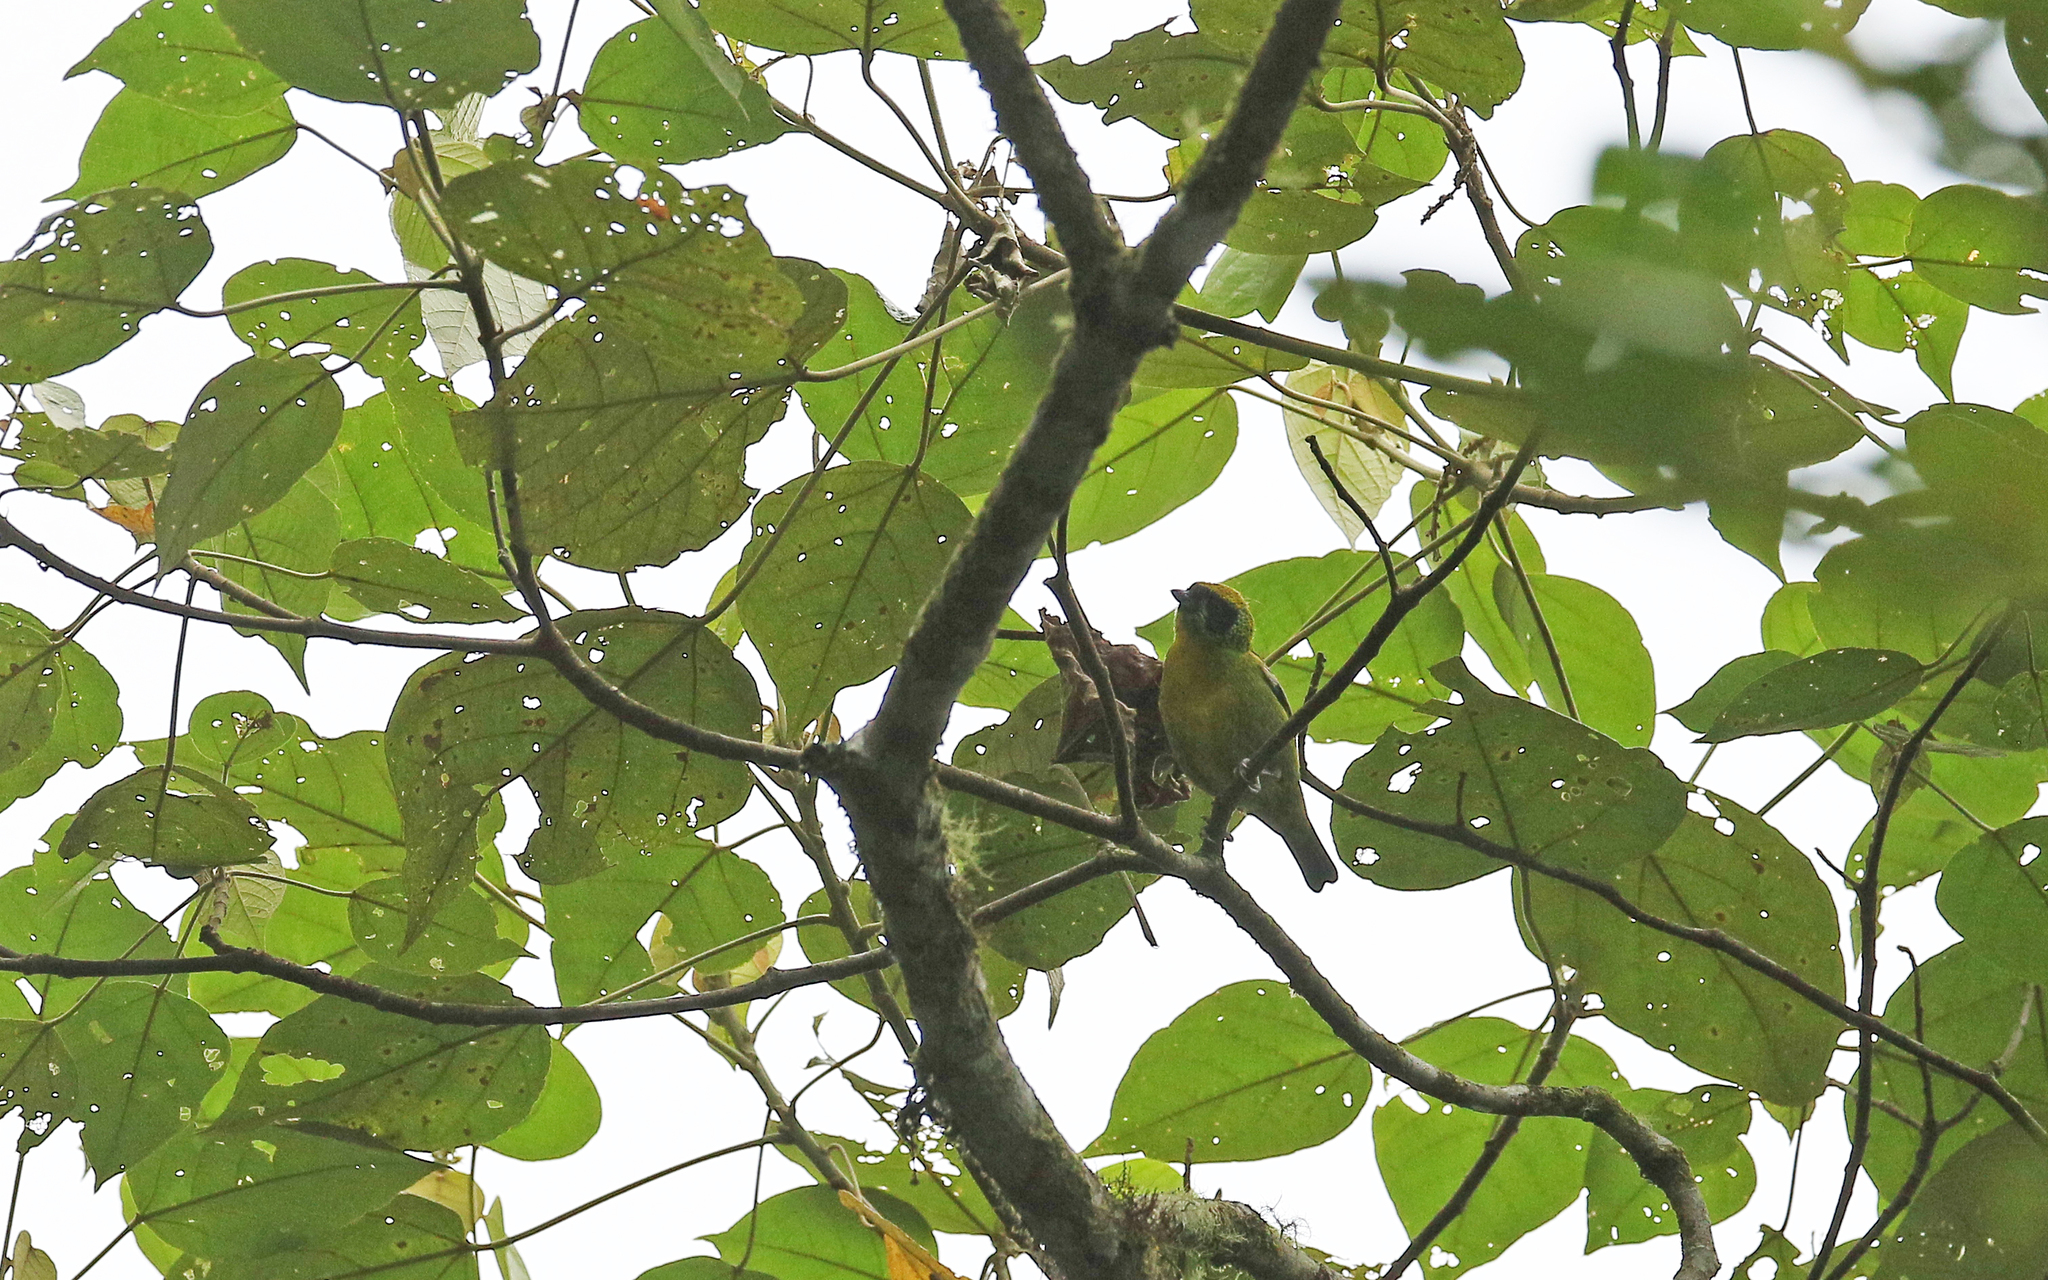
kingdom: Animalia
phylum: Chordata
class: Aves
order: Passeriformes
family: Thraupidae
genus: Tangara
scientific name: Tangara schrankii
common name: Green-and-gold tanager
